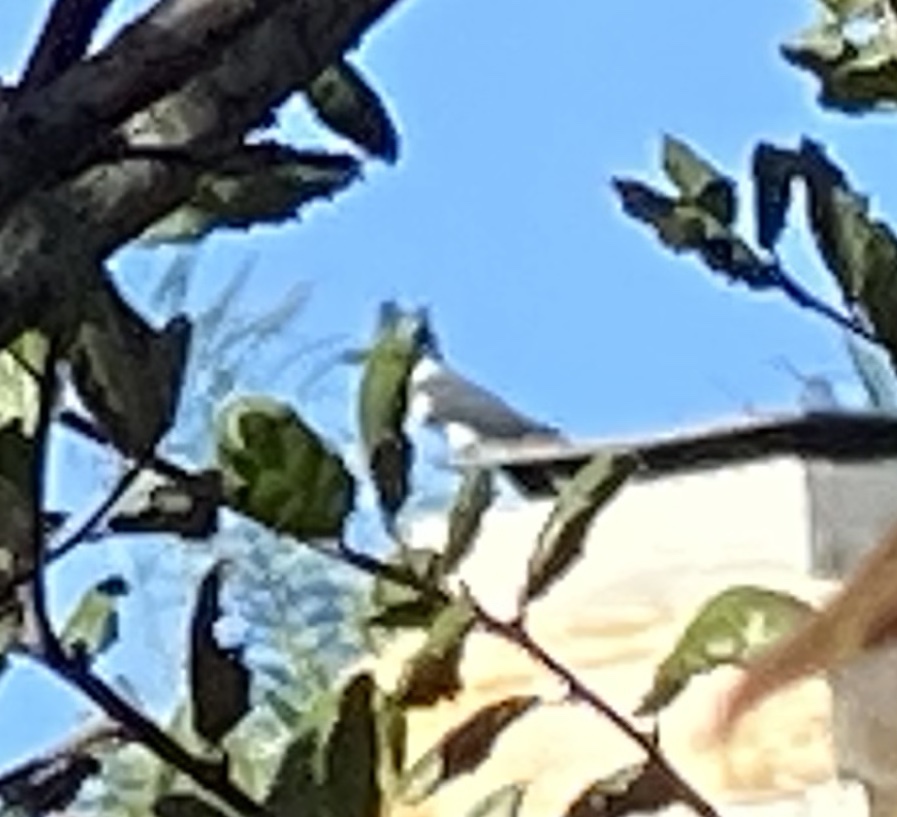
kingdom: Animalia
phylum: Chordata
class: Aves
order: Coraciiformes
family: Alcedinidae
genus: Megaceryle
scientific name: Megaceryle alcyon
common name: Belted kingfisher
